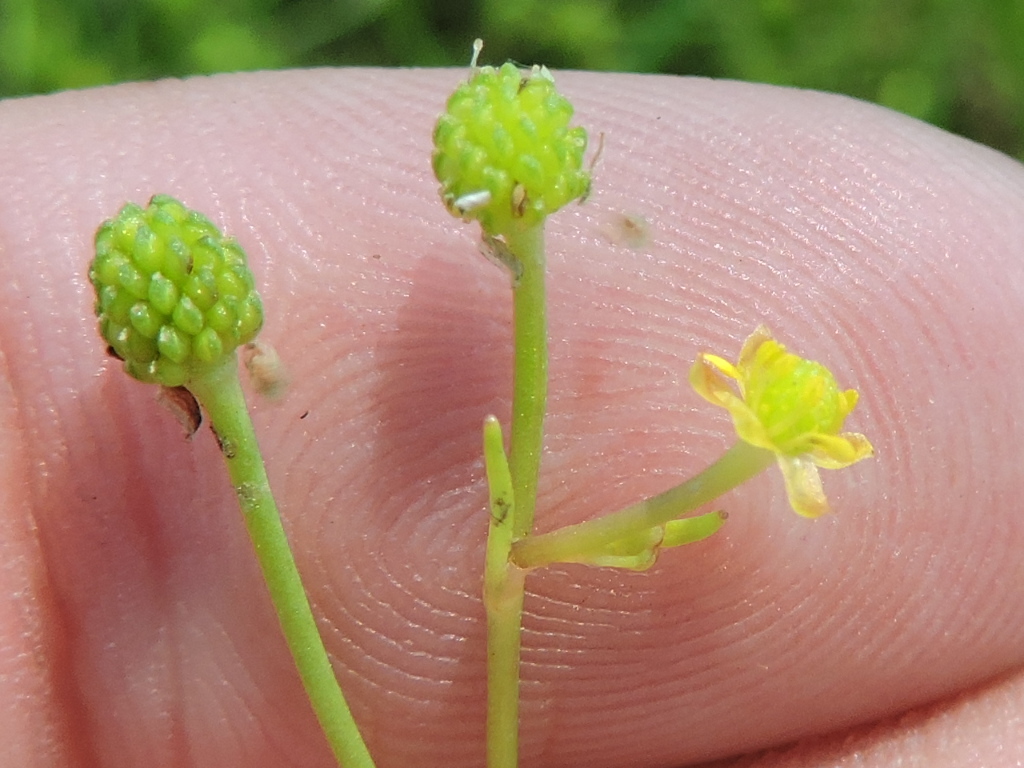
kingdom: Plantae
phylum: Tracheophyta
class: Magnoliopsida
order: Ranunculales
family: Ranunculaceae
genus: Ranunculus
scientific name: Ranunculus pusillus
